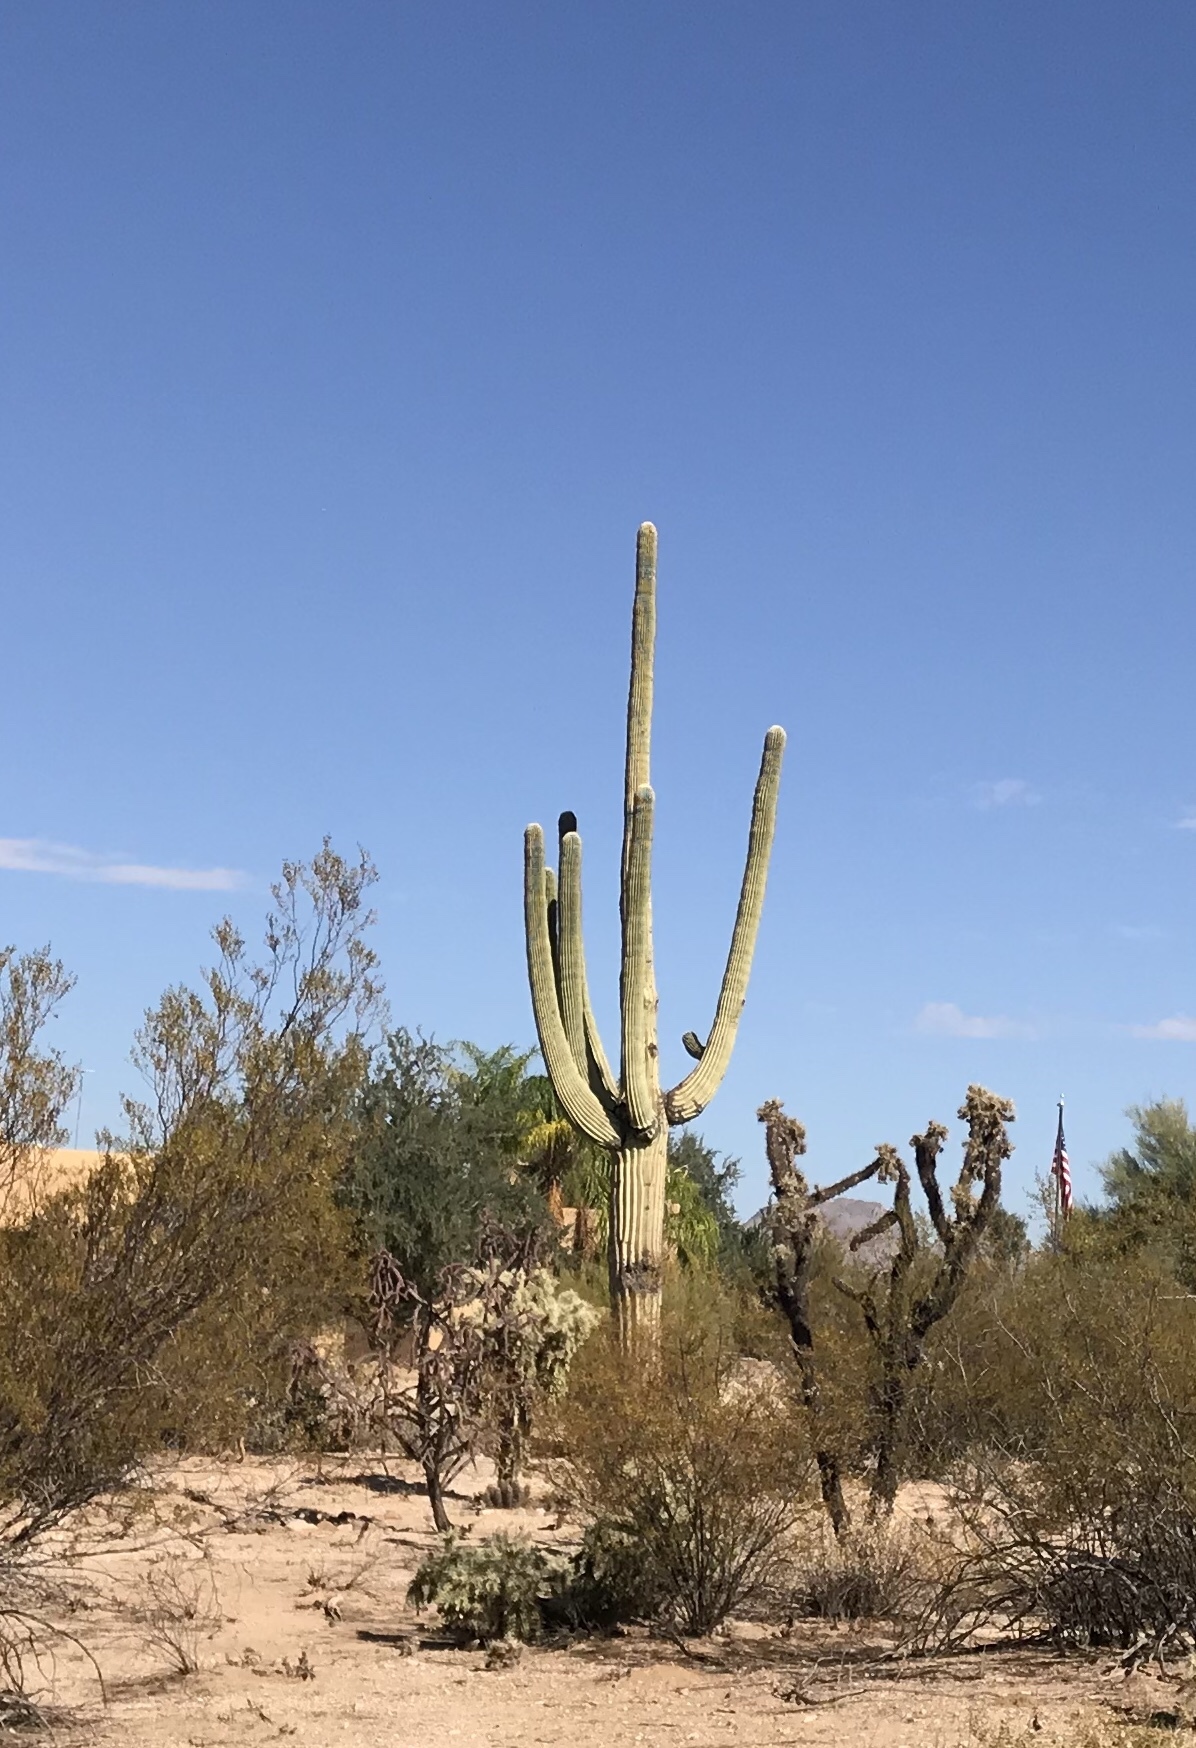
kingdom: Plantae
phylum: Tracheophyta
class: Magnoliopsida
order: Caryophyllales
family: Cactaceae
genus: Carnegiea
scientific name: Carnegiea gigantea
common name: Saguaro
